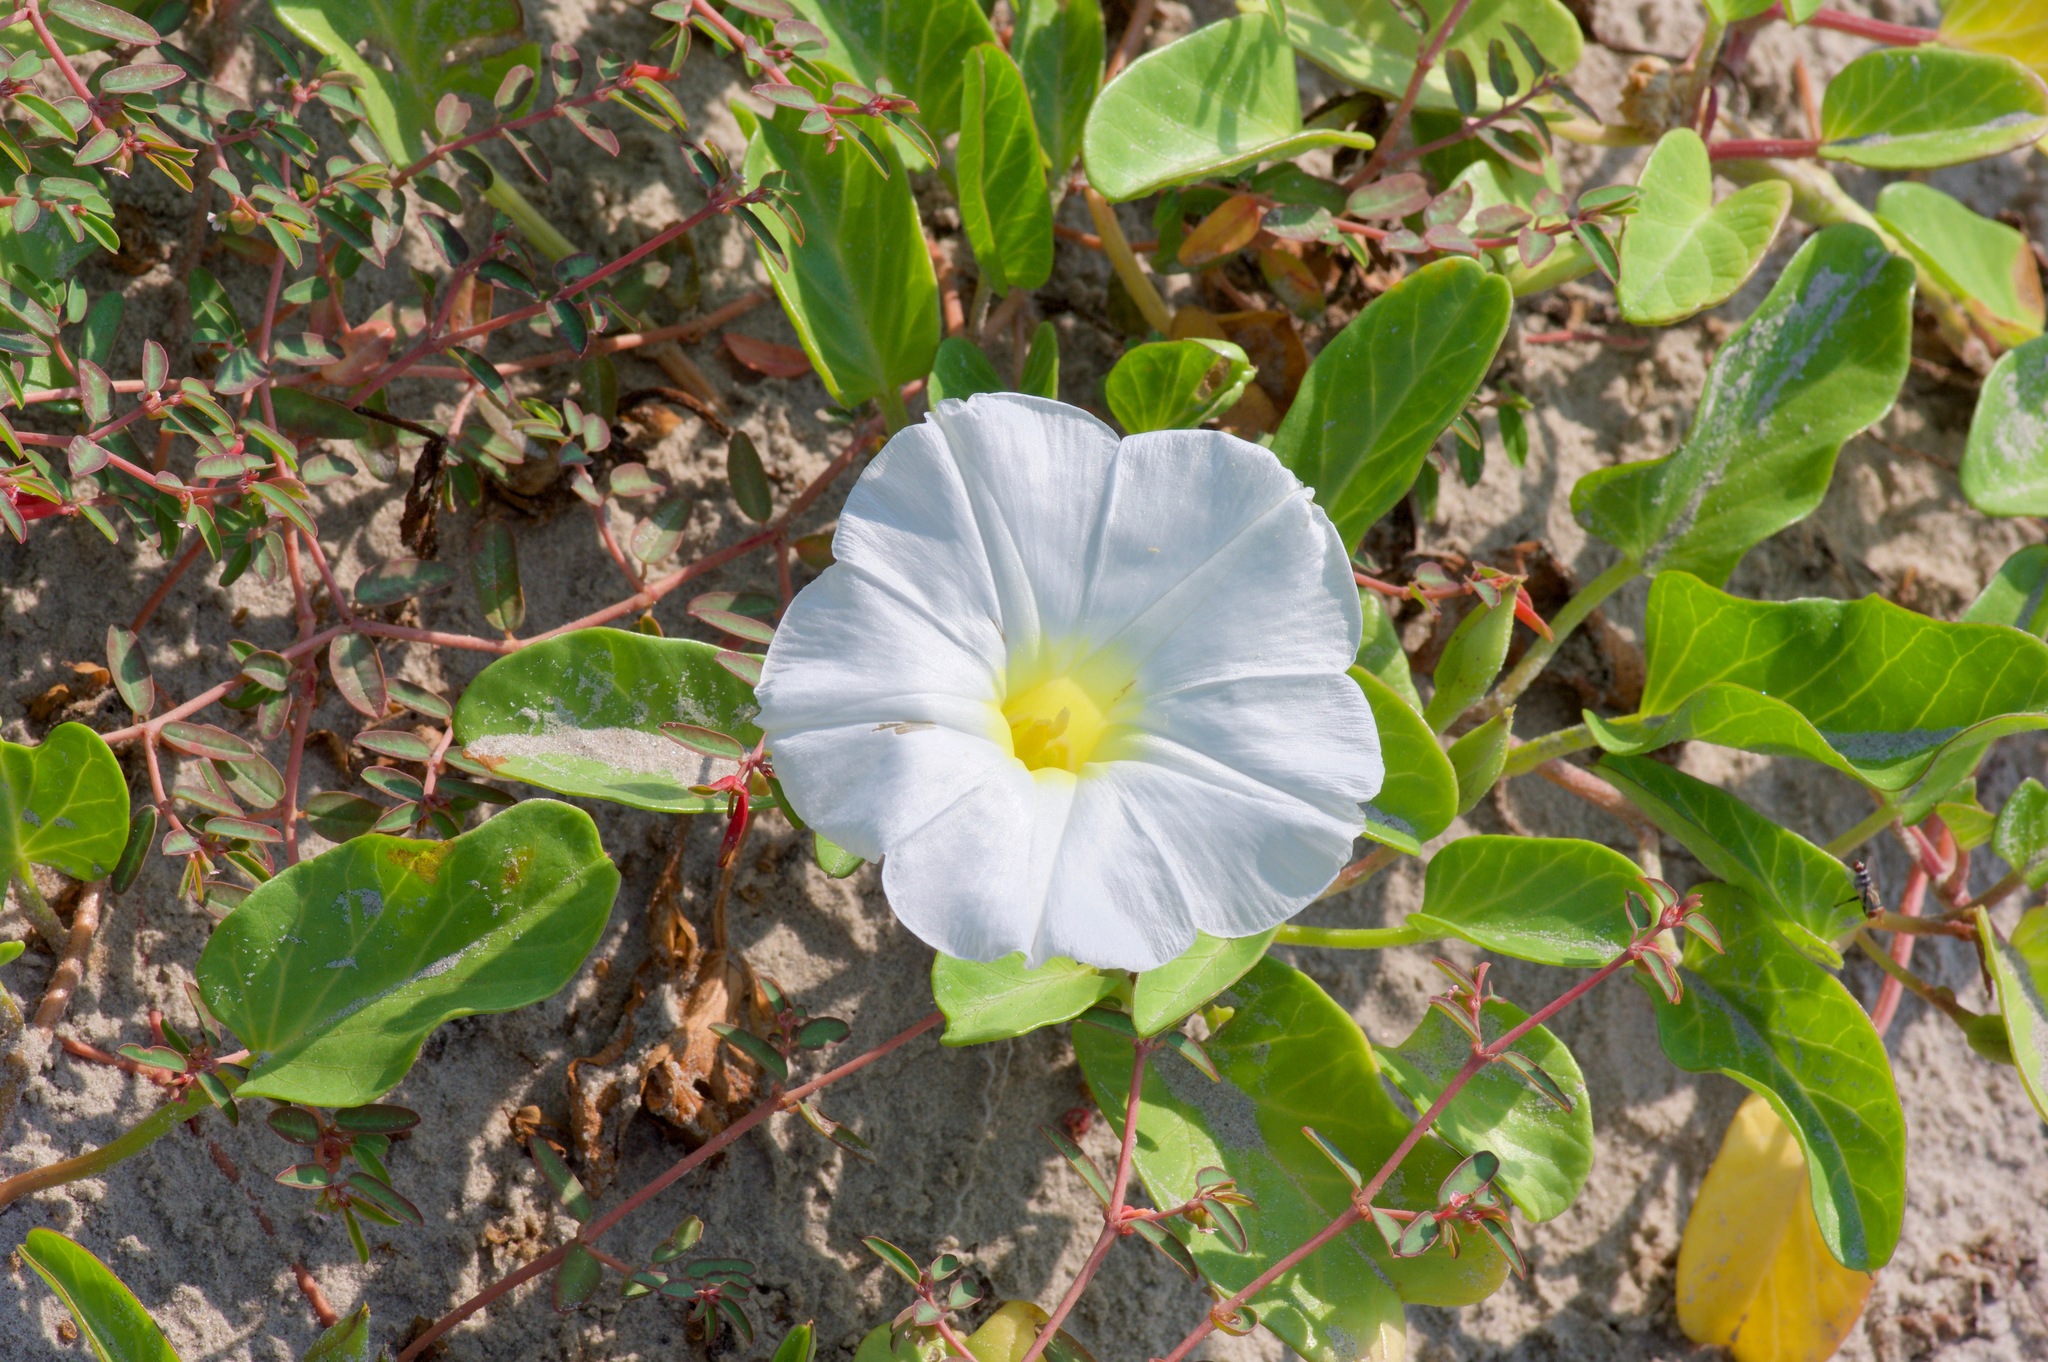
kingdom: Plantae
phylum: Tracheophyta
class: Magnoliopsida
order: Solanales
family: Convolvulaceae
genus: Ipomoea
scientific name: Ipomoea imperati
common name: Fiddle-leaf morning-glory
